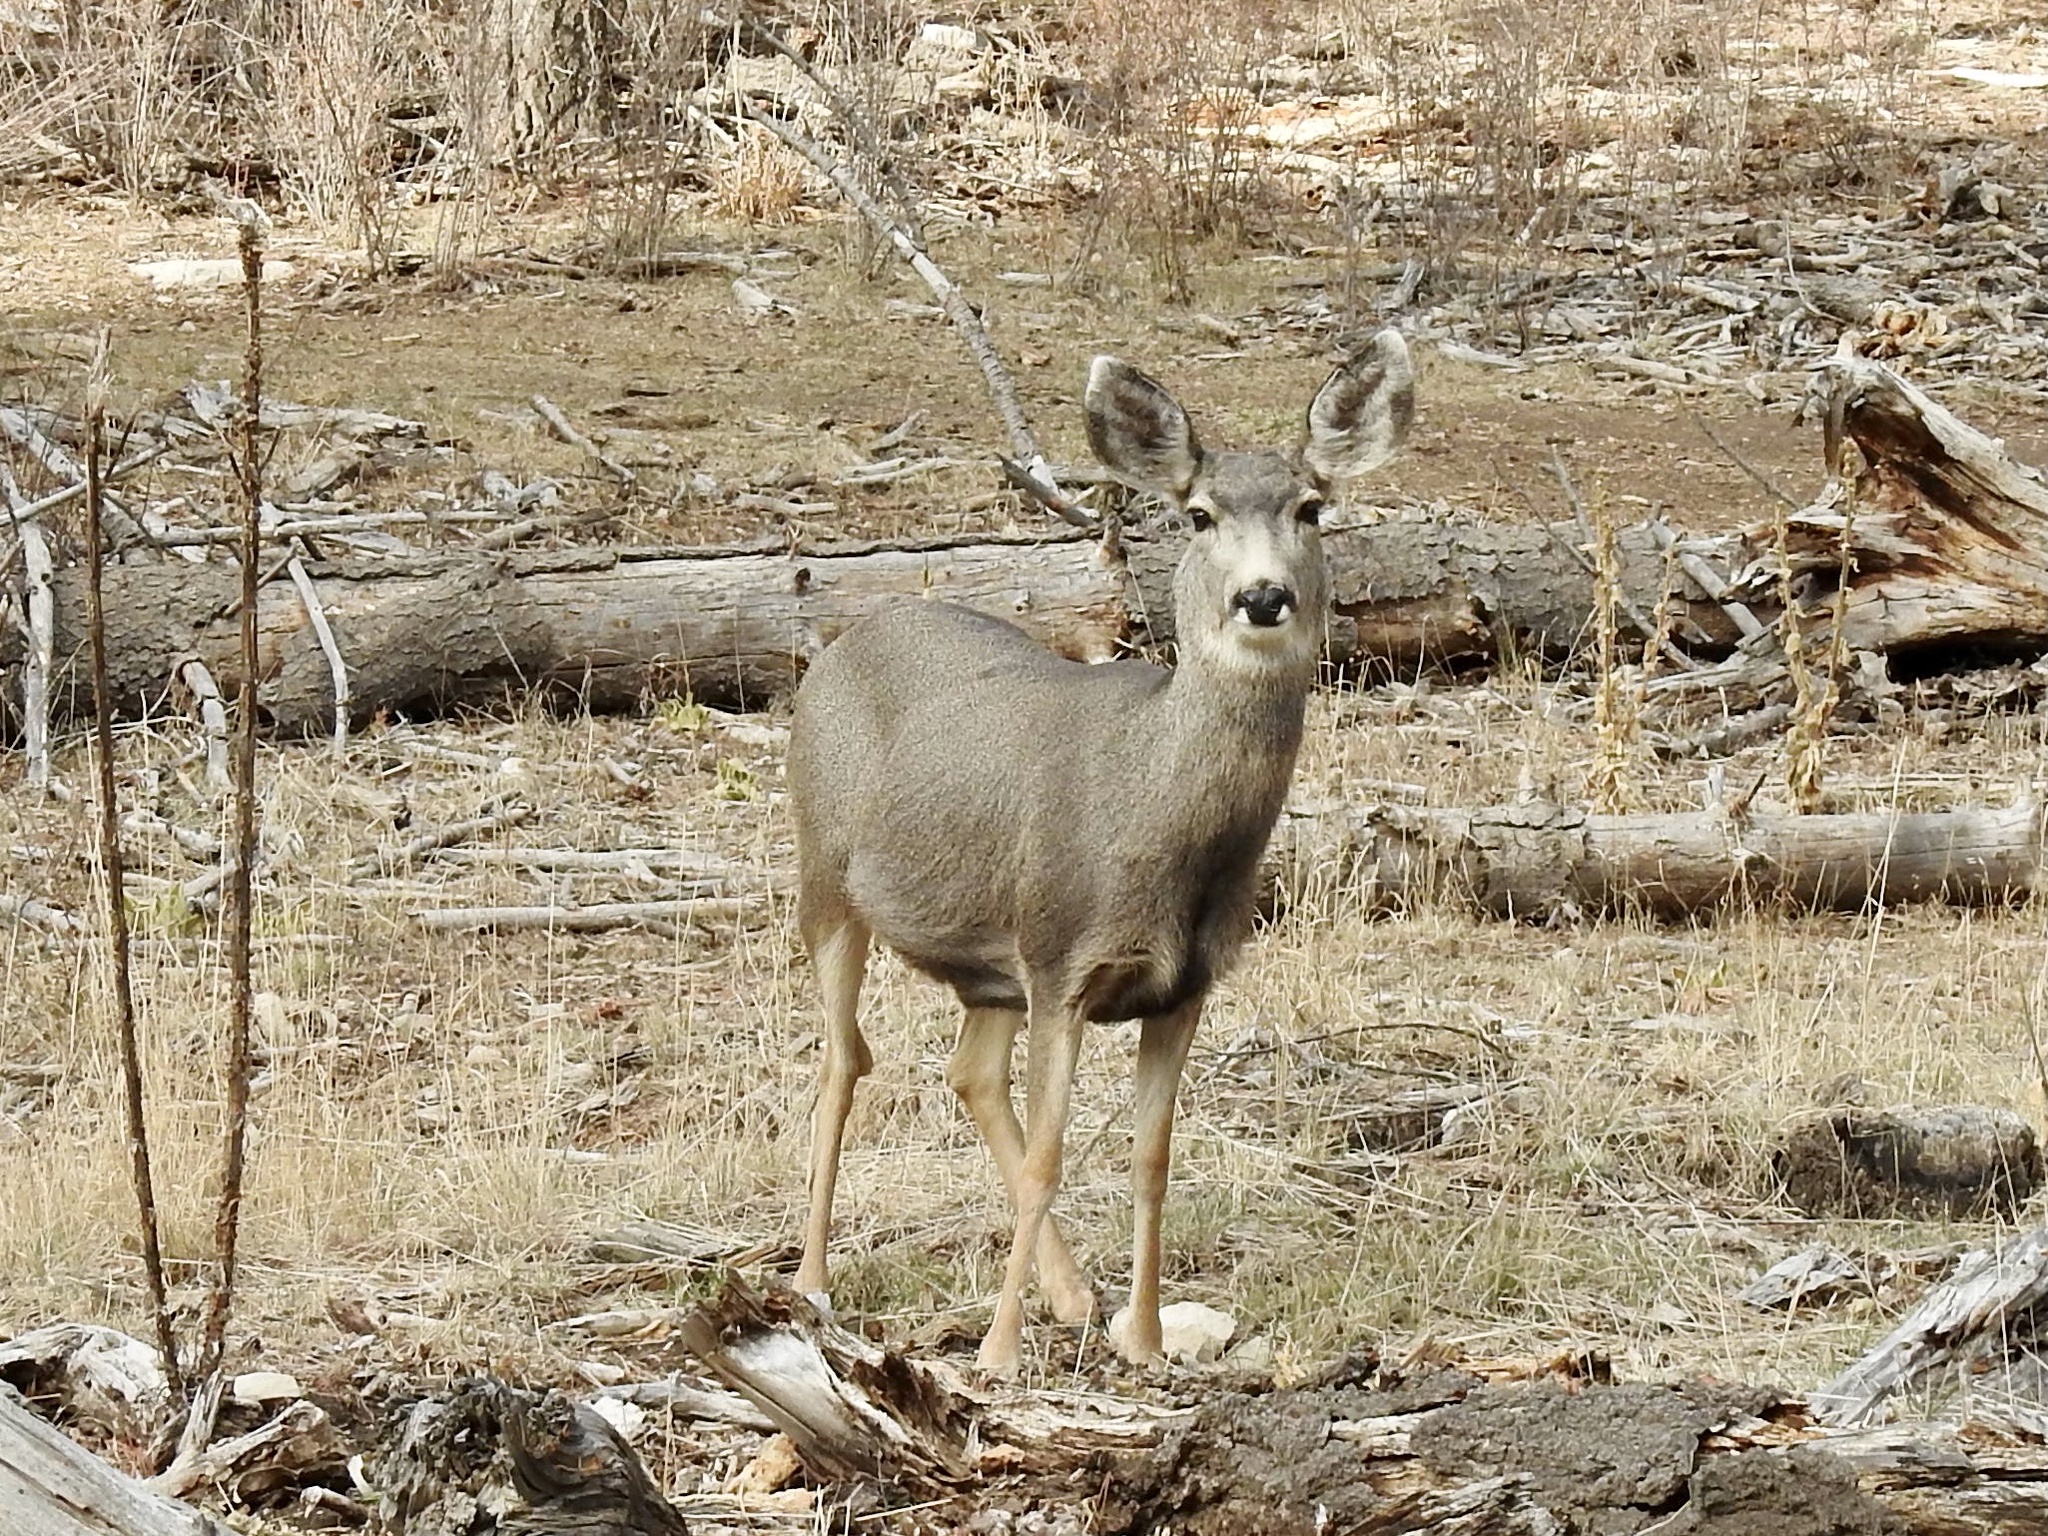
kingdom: Animalia
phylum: Chordata
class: Mammalia
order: Artiodactyla
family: Cervidae
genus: Odocoileus
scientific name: Odocoileus hemionus
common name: Mule deer
